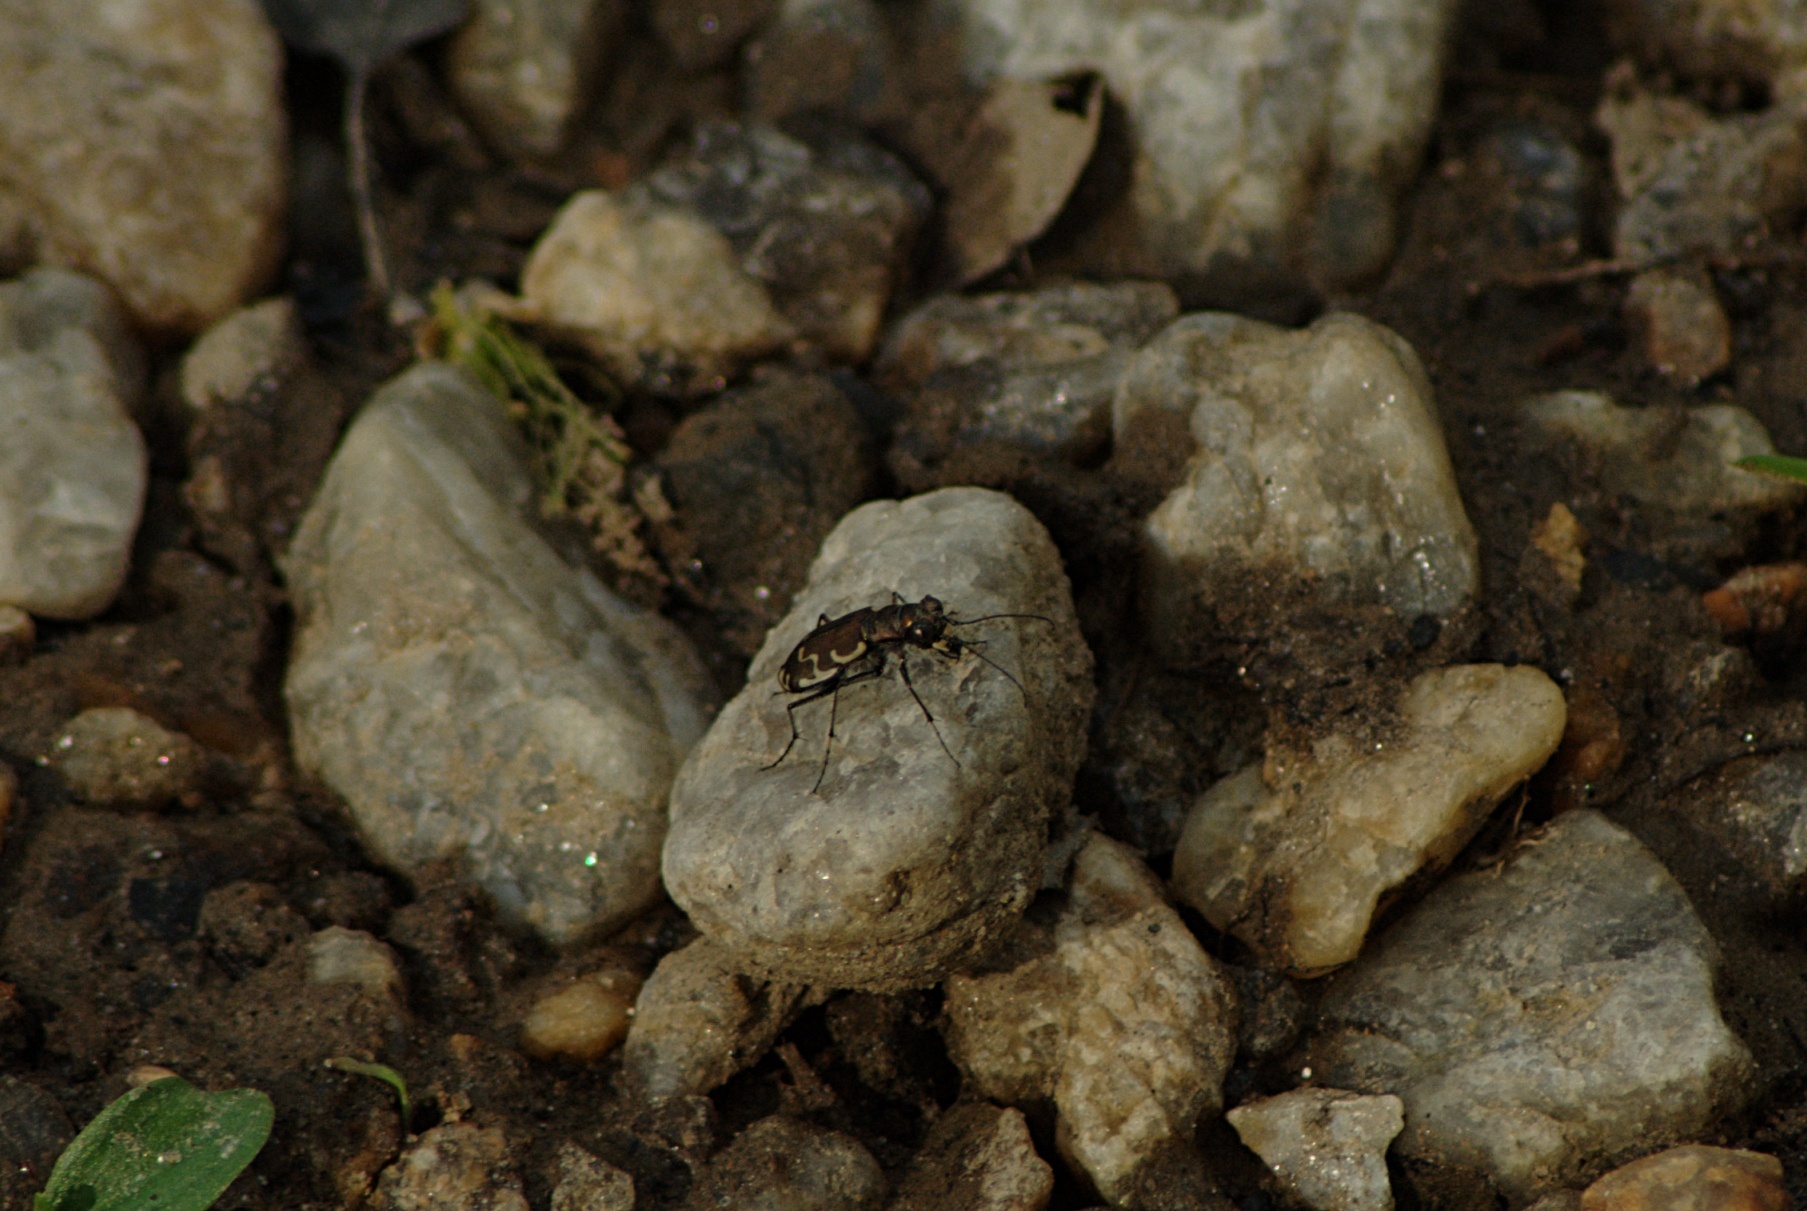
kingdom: Animalia
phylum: Arthropoda
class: Insecta
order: Coleoptera
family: Carabidae
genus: Cicindela
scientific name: Cicindela repanda
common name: Bronzed tiger beetle
